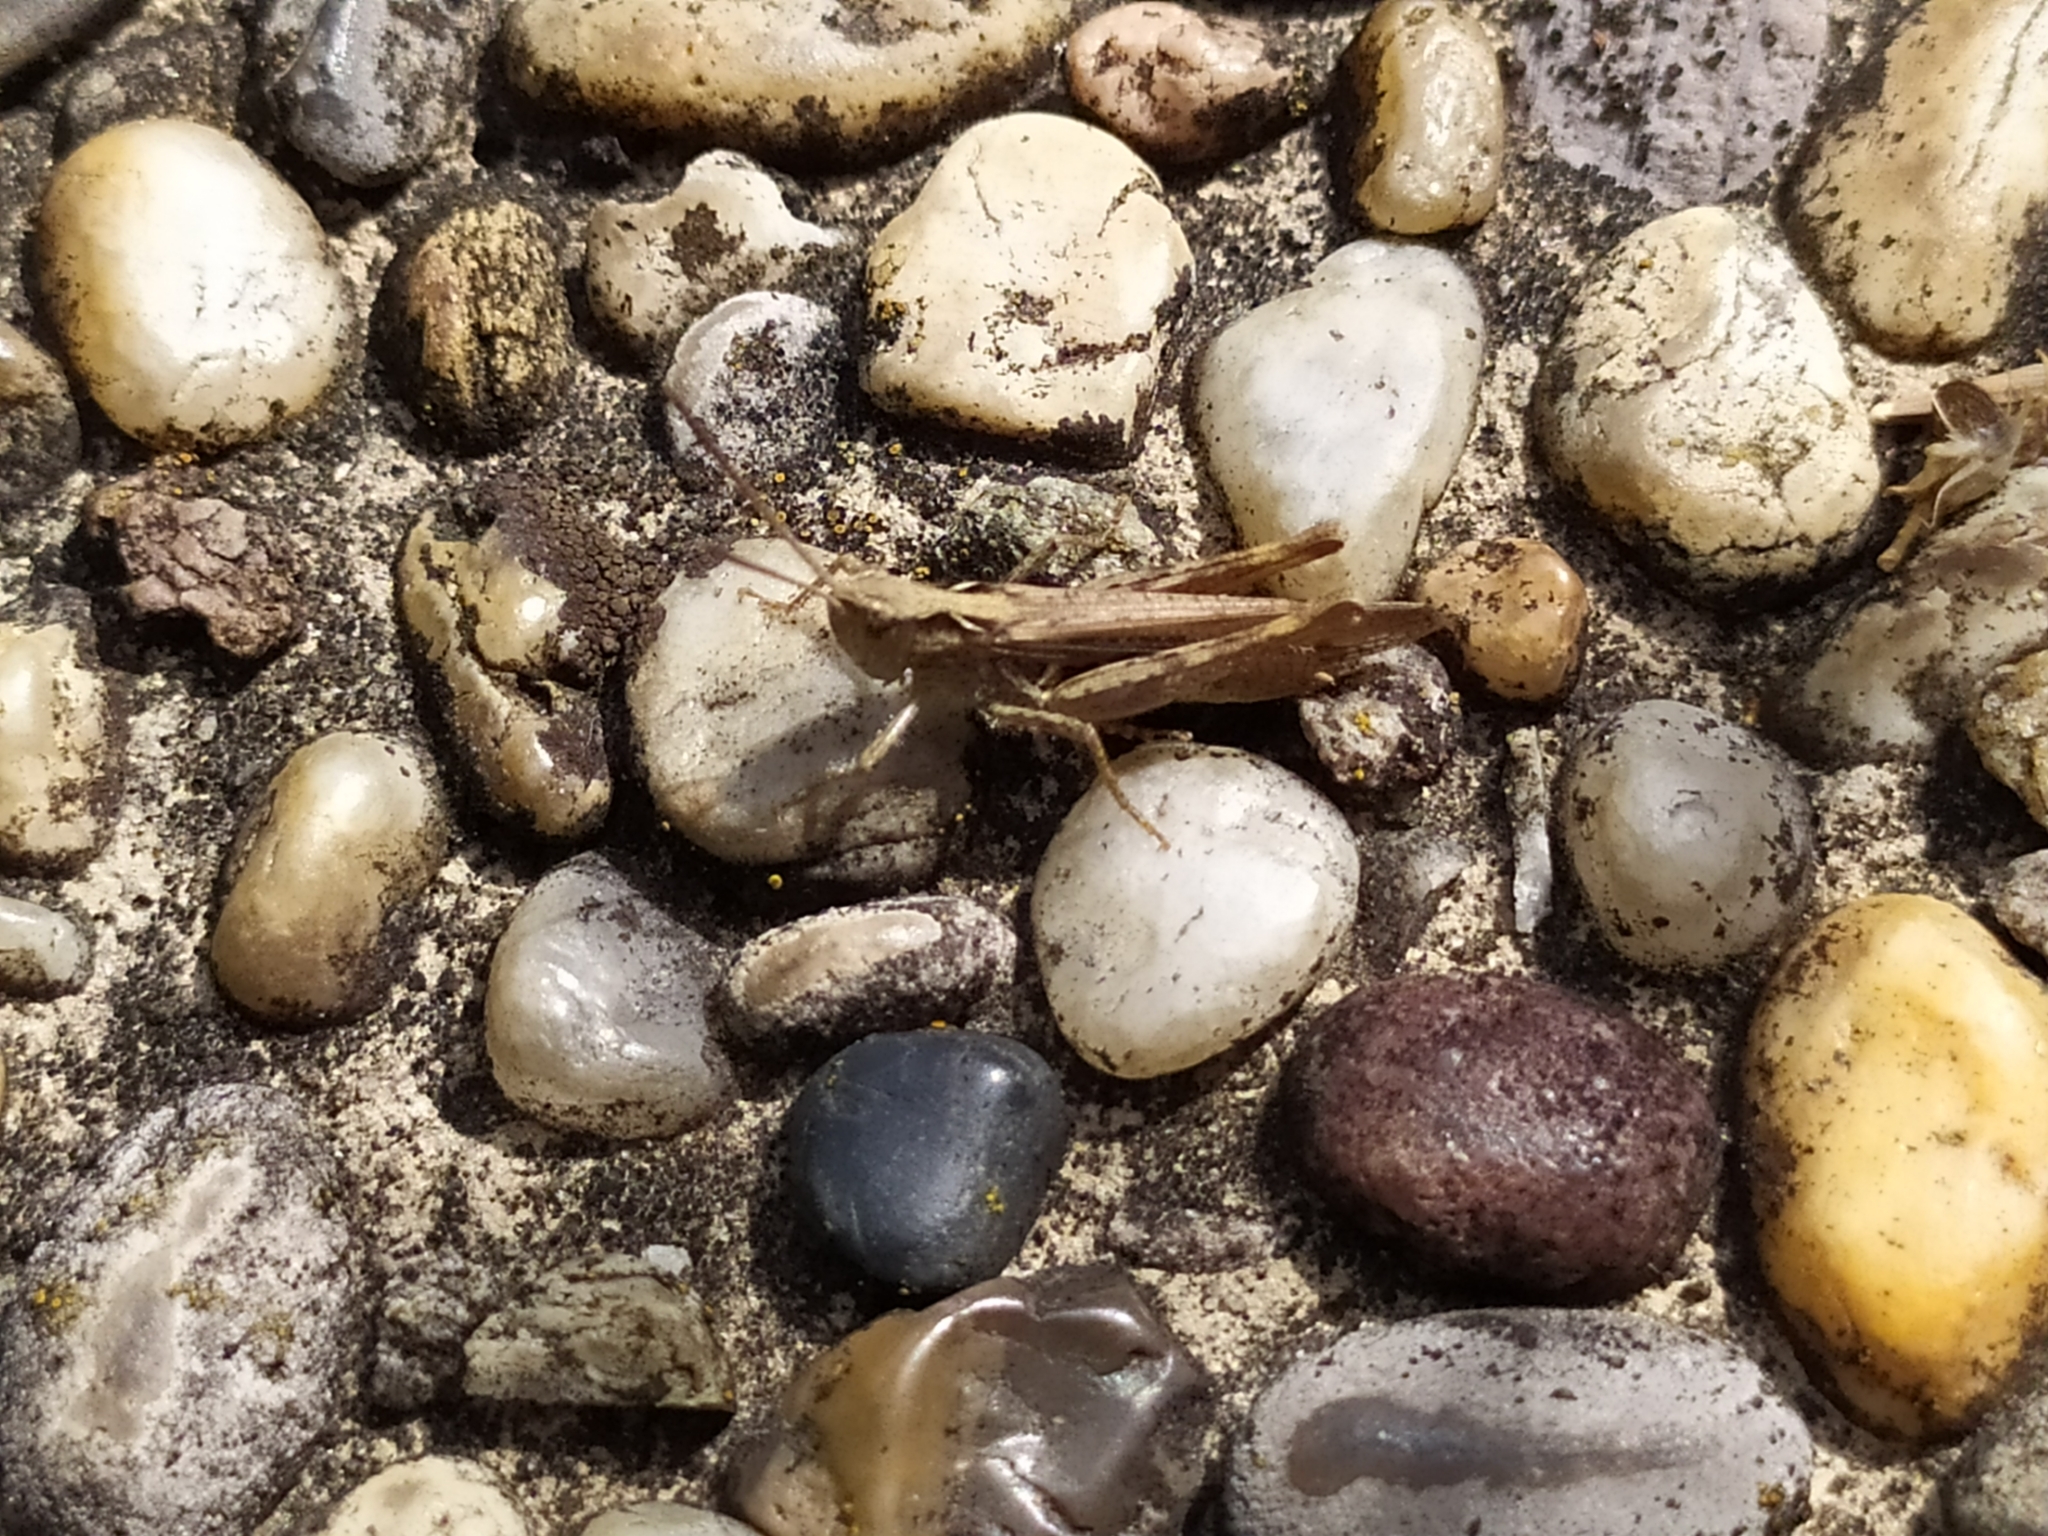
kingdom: Animalia
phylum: Arthropoda
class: Insecta
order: Orthoptera
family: Acrididae
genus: Chorthippus
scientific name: Chorthippus mollis
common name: Lesser field grasshopper
